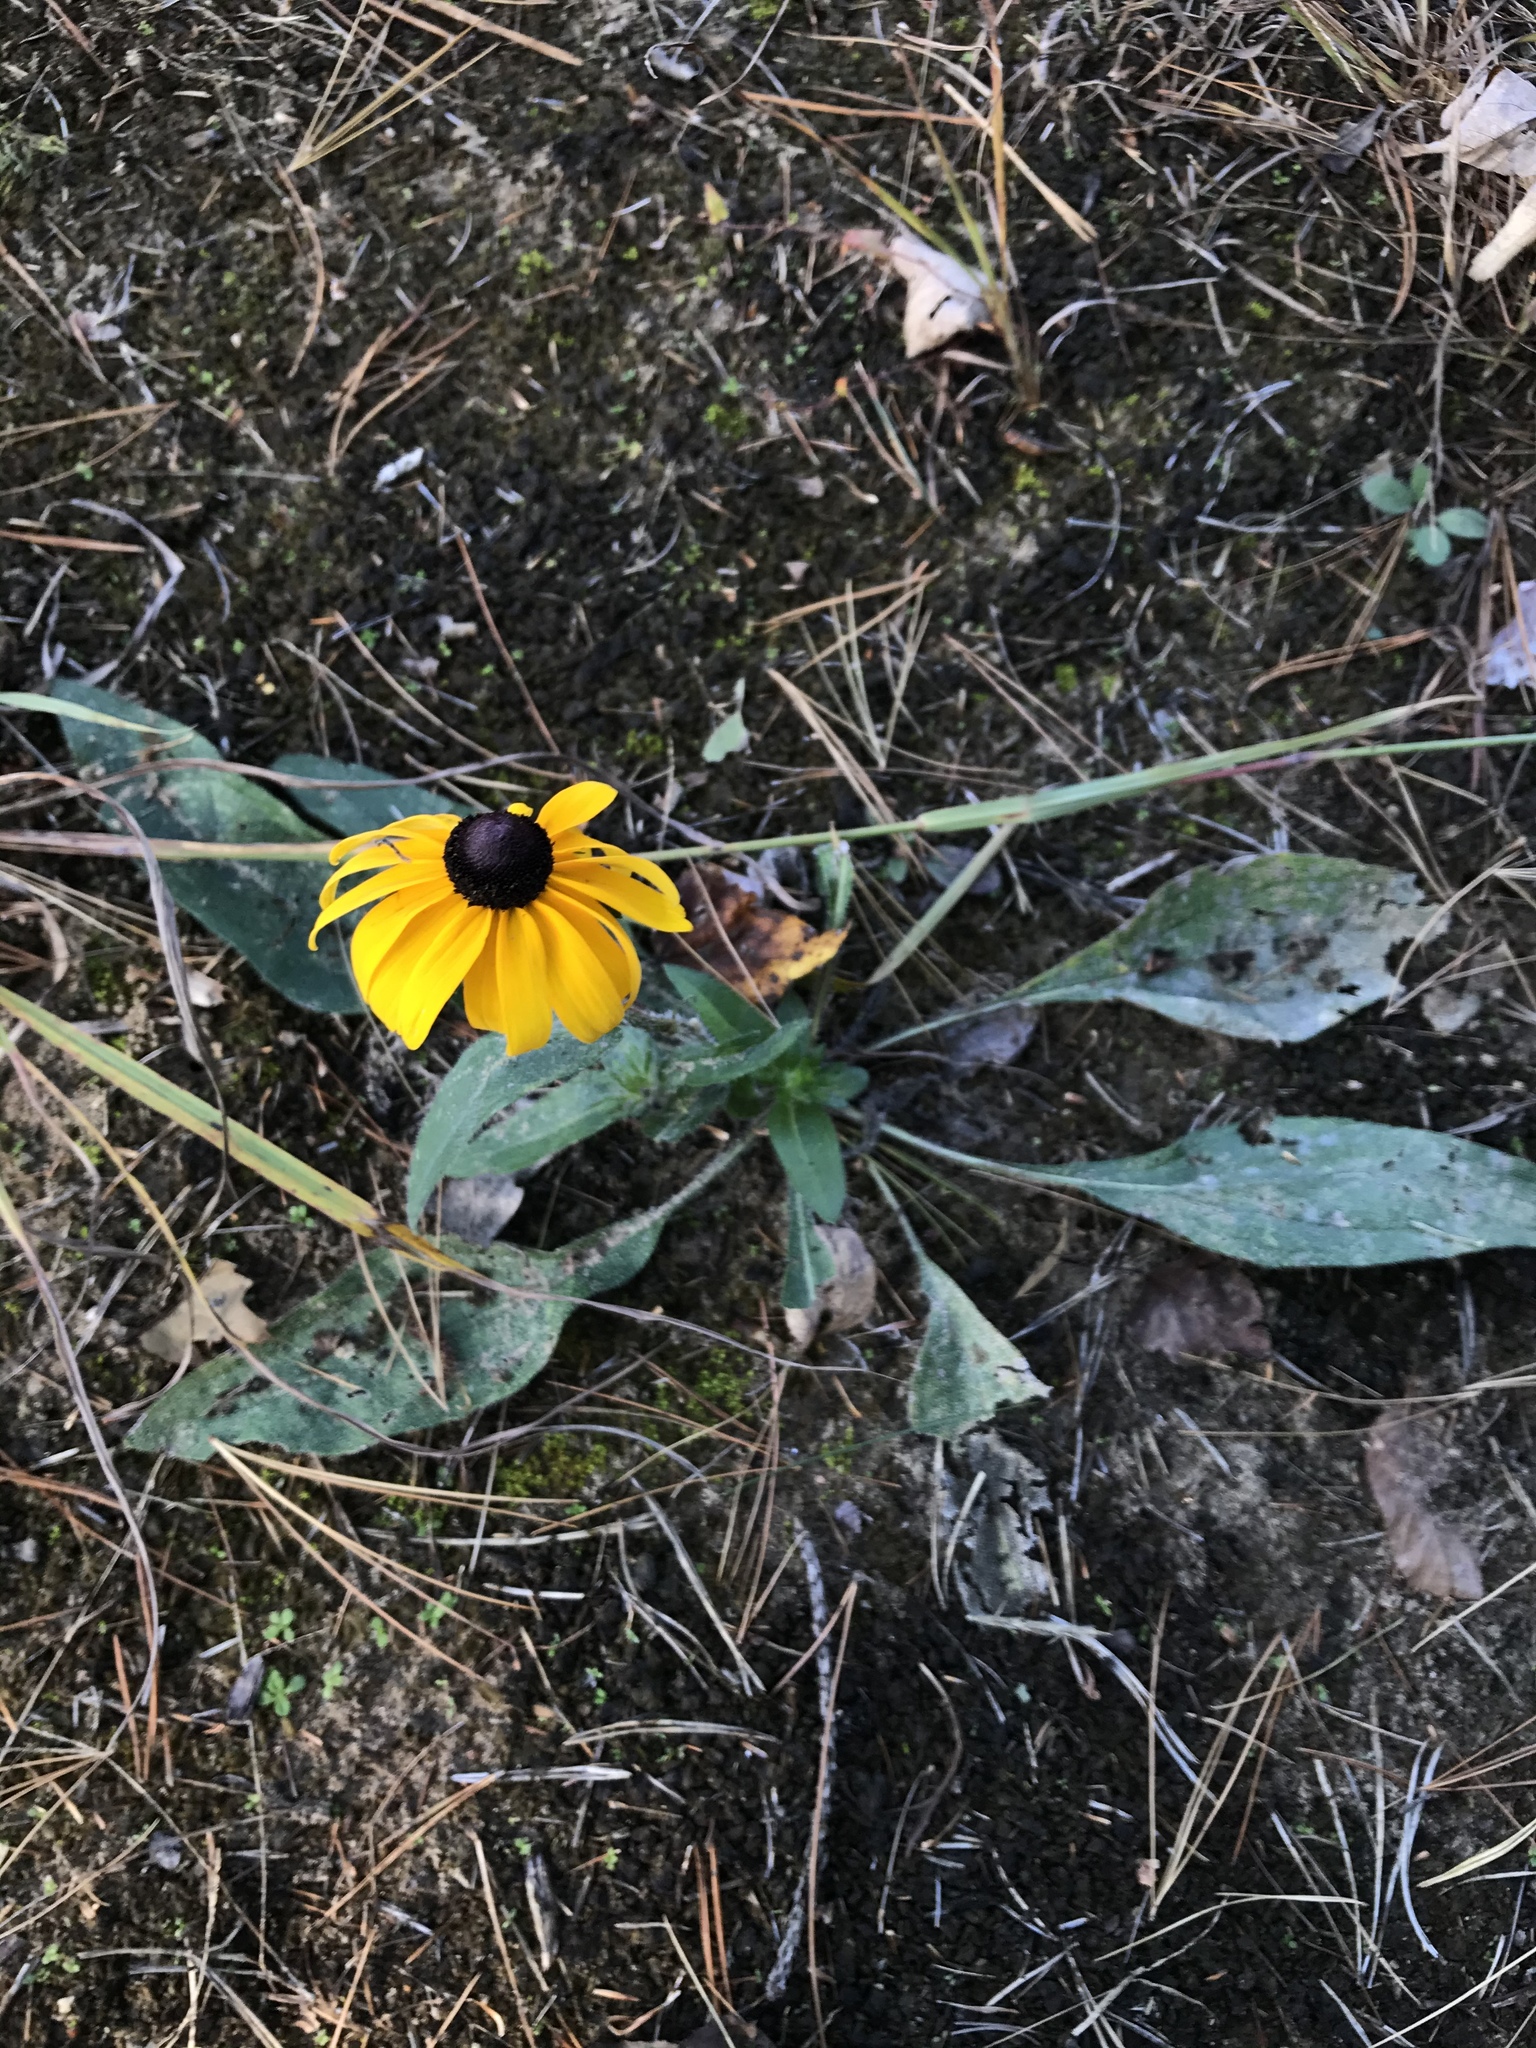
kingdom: Plantae
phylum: Tracheophyta
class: Magnoliopsida
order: Asterales
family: Asteraceae
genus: Rudbeckia
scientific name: Rudbeckia hirta
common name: Black-eyed-susan
